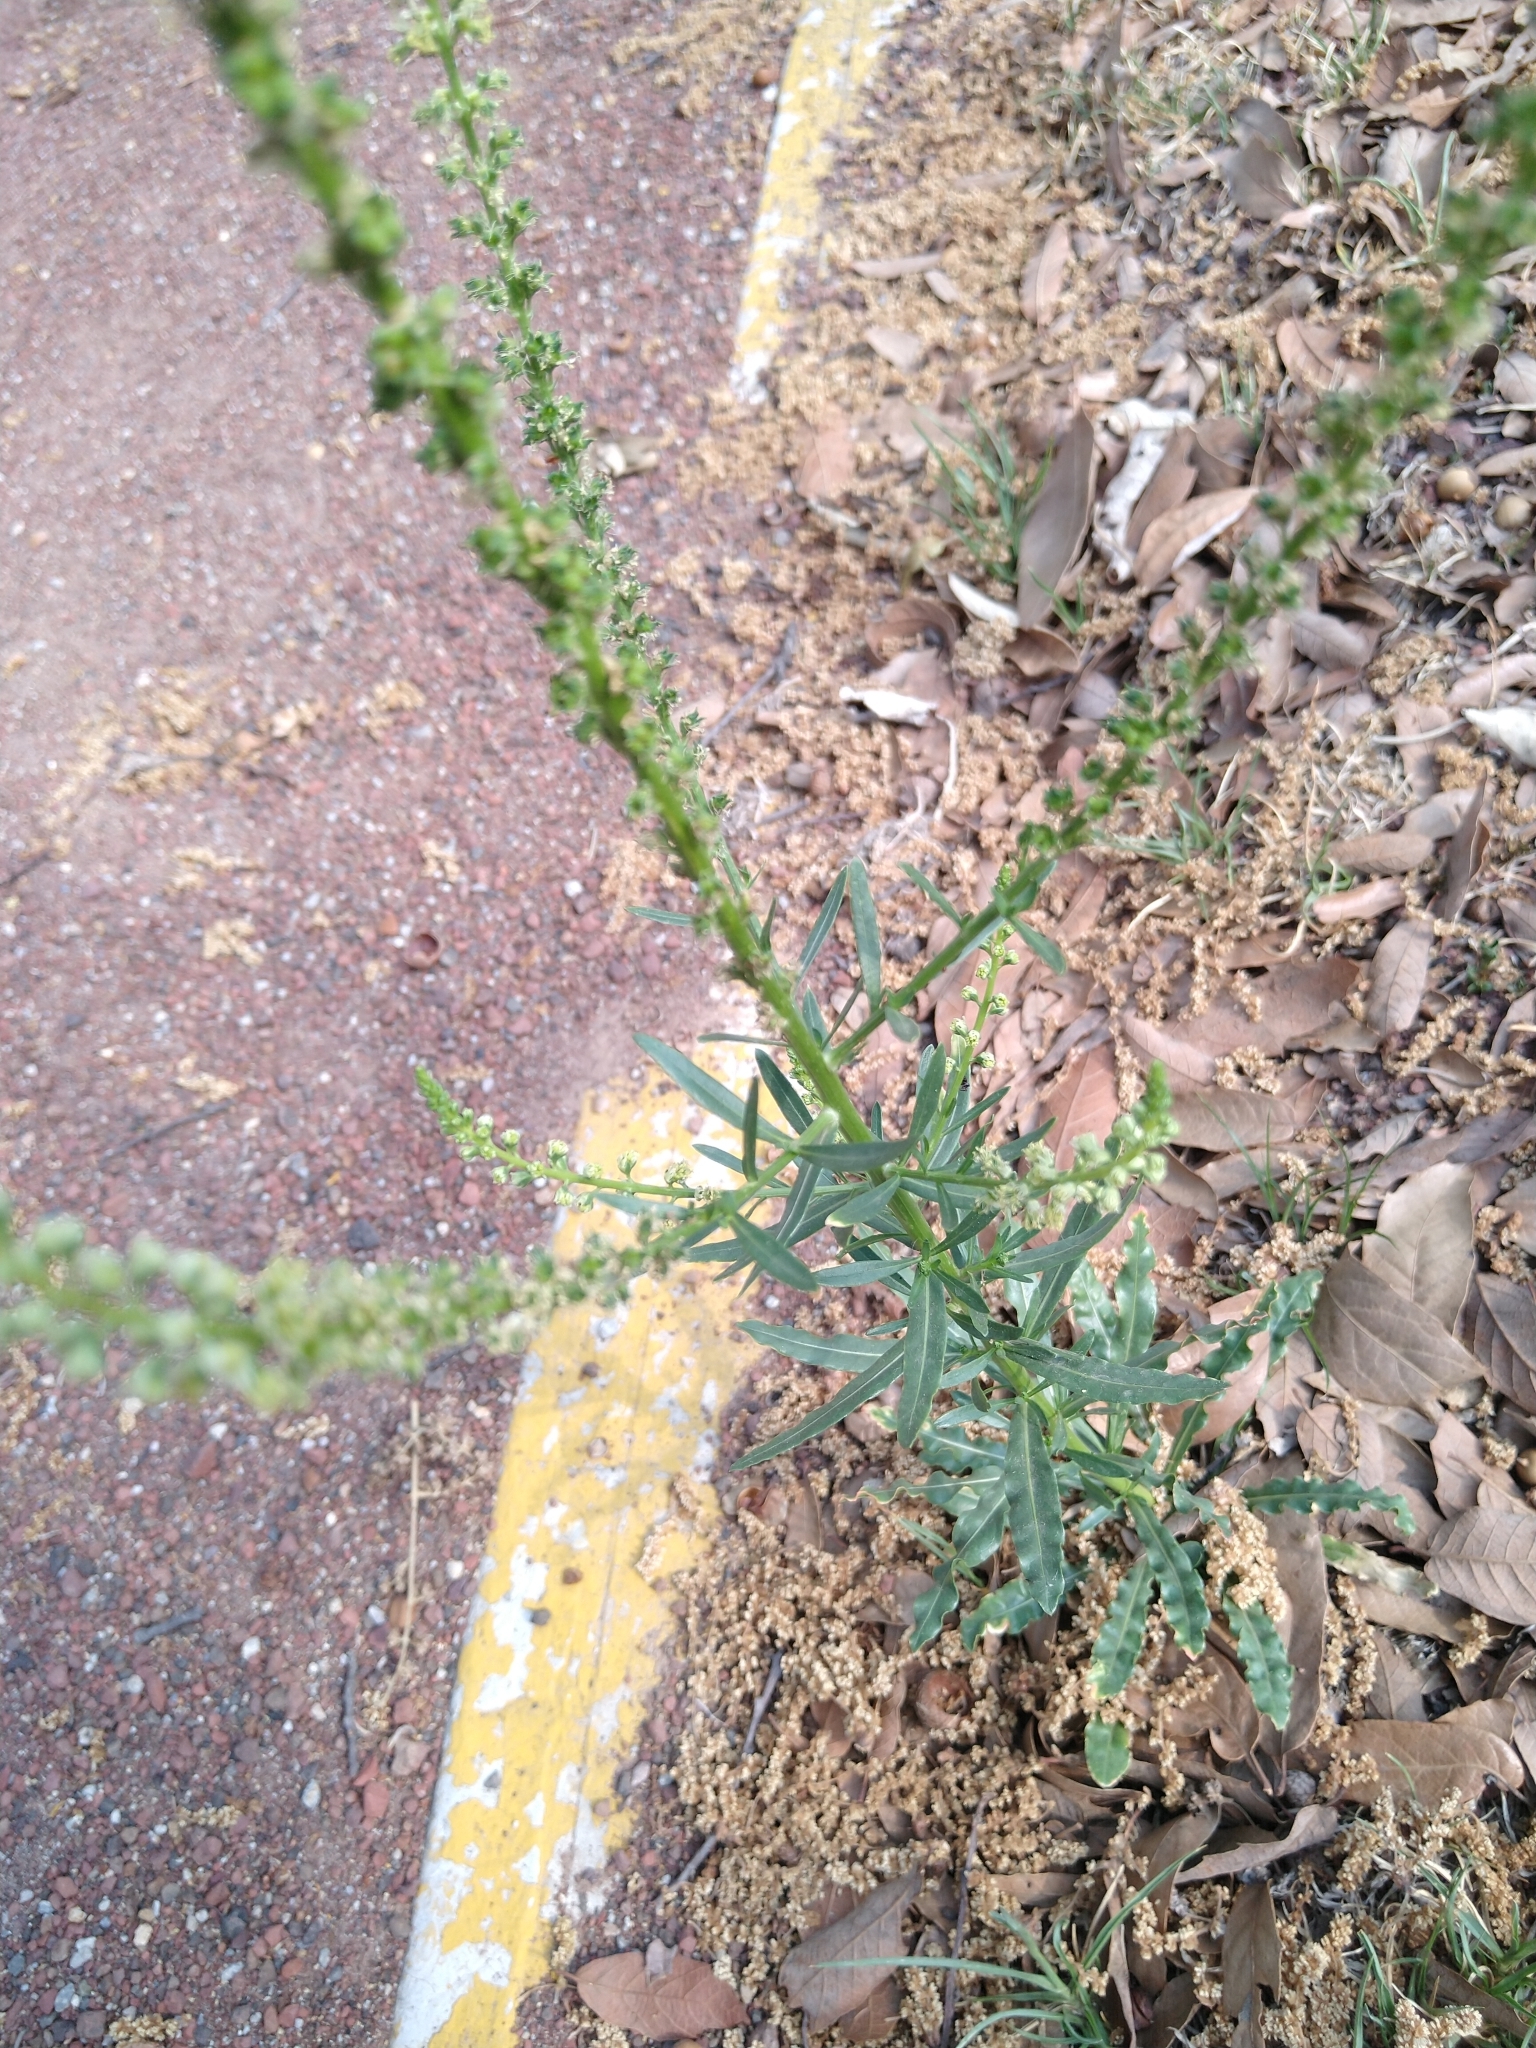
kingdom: Plantae
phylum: Tracheophyta
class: Magnoliopsida
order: Brassicales
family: Resedaceae
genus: Reseda
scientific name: Reseda luteola
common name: Weld
